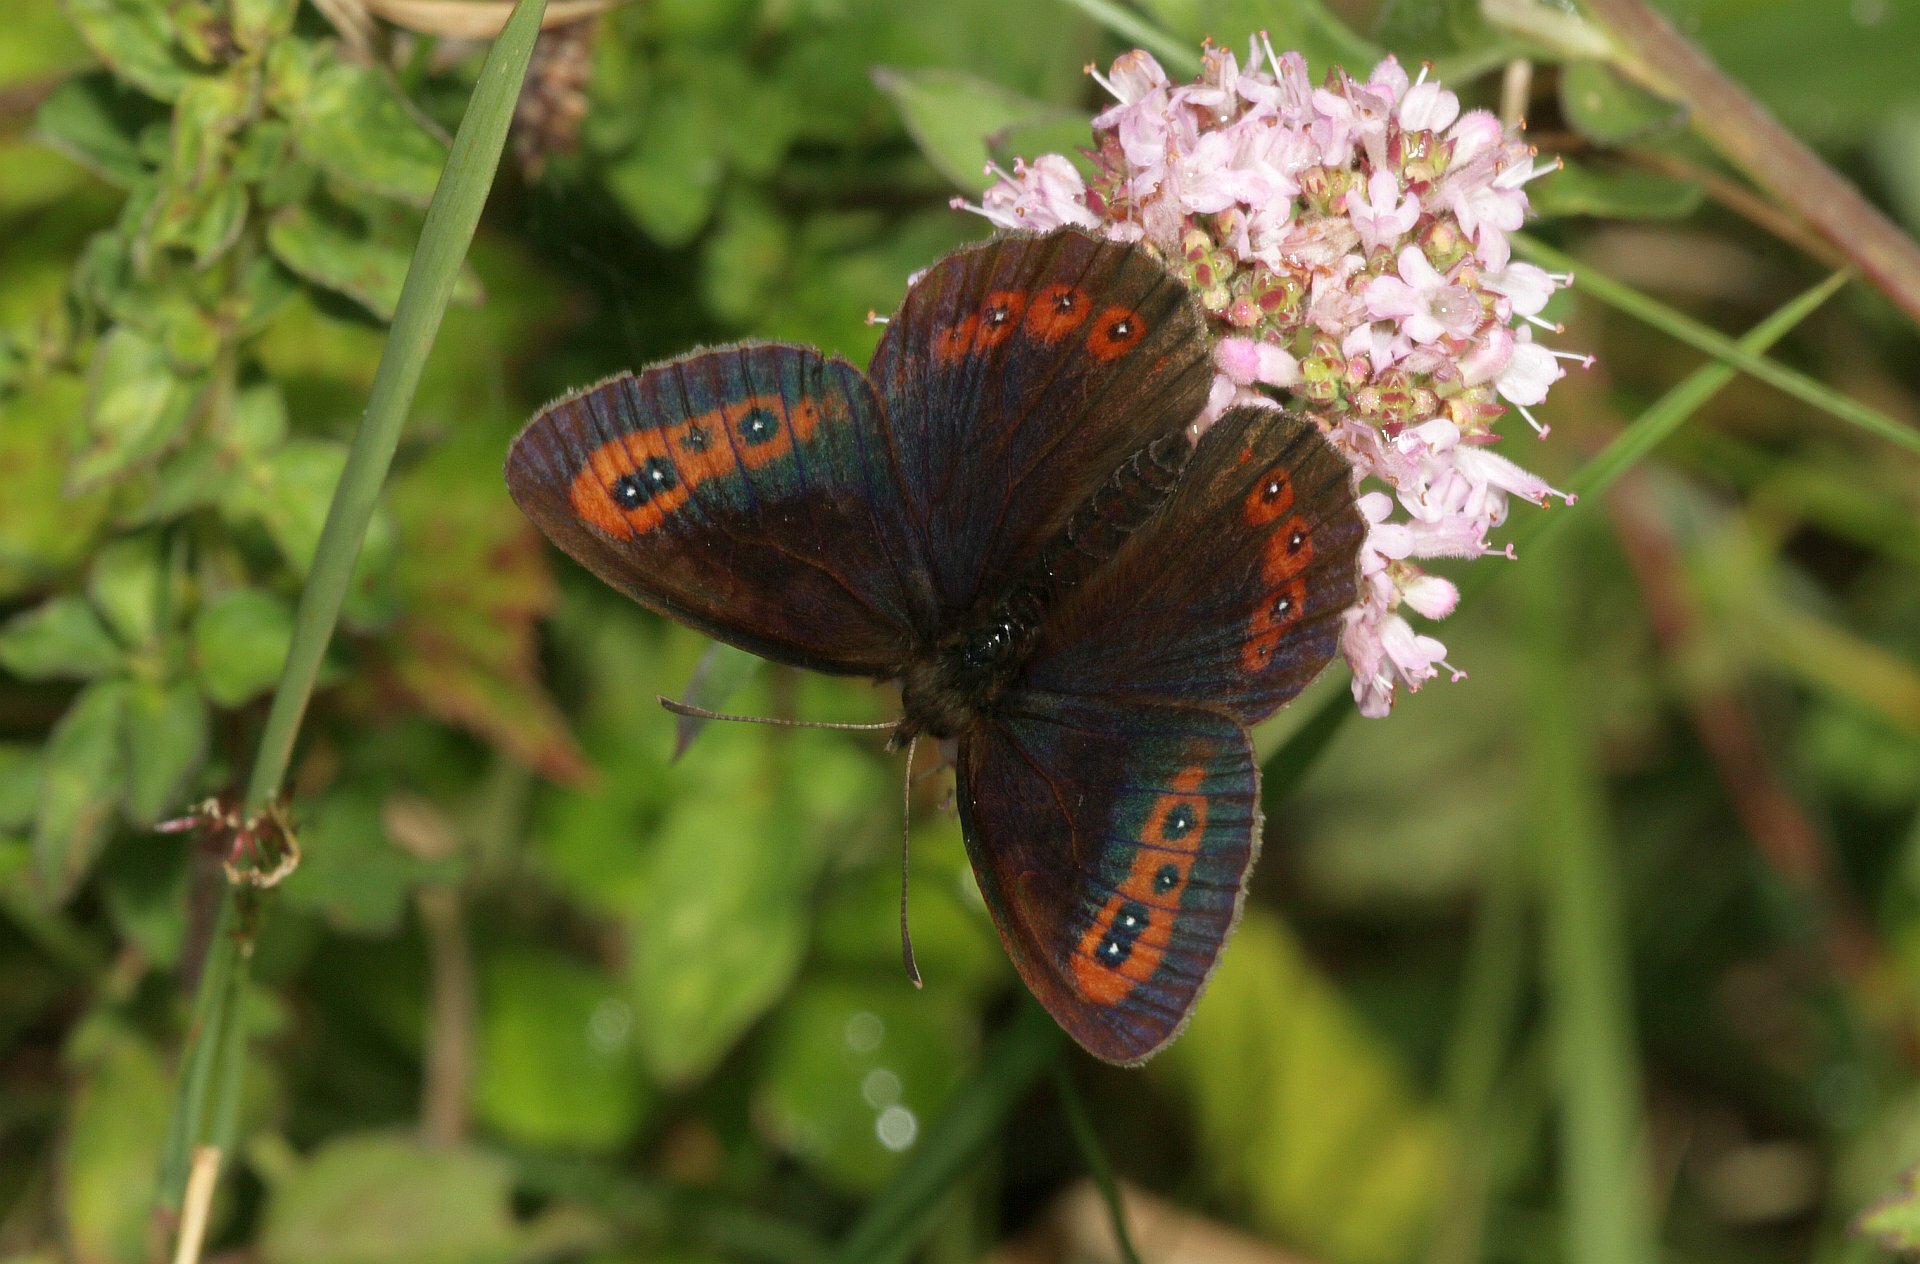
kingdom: Animalia
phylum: Arthropoda
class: Insecta
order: Lepidoptera
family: Nymphalidae
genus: Erebia
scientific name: Erebia aethiops
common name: Scotch argus
